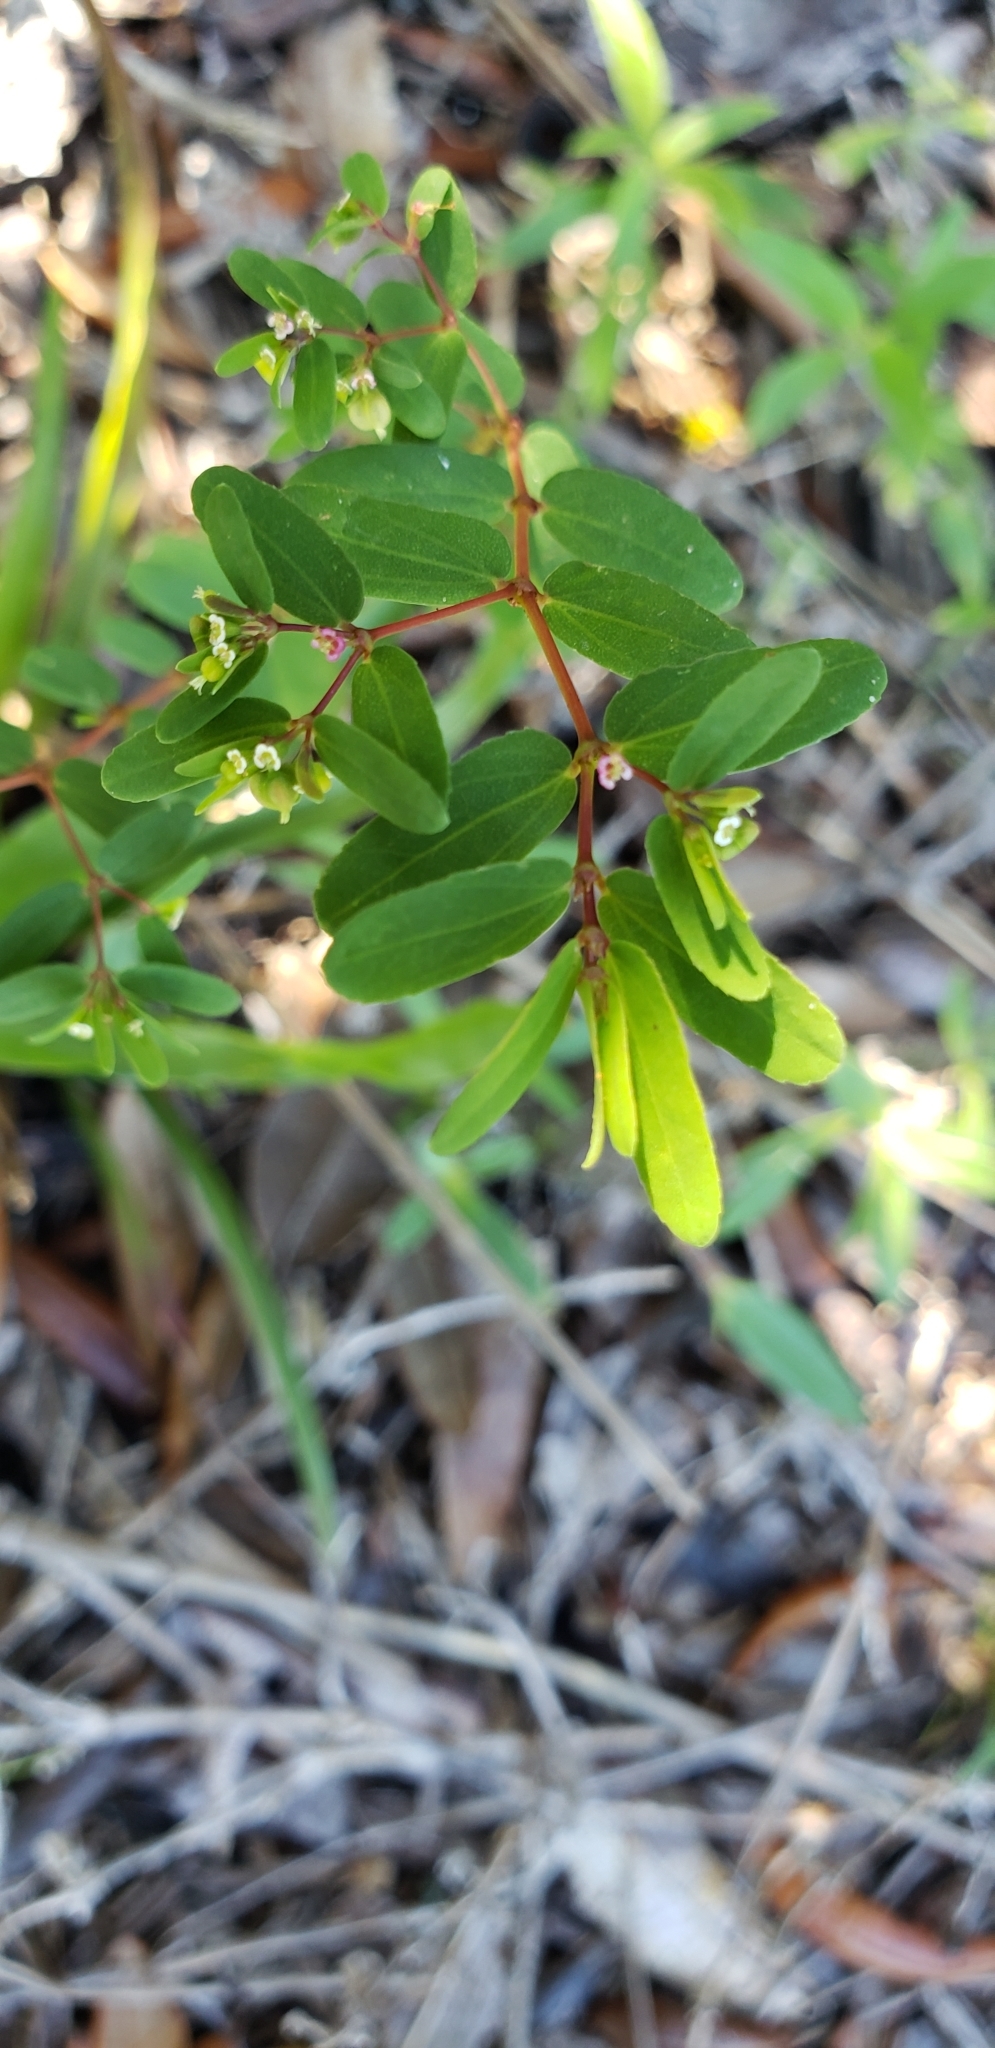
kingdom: Plantae
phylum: Tracheophyta
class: Magnoliopsida
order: Malpighiales
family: Euphorbiaceae
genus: Euphorbia
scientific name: Euphorbia hyssopifolia
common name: Hyssopleaf sandmat
